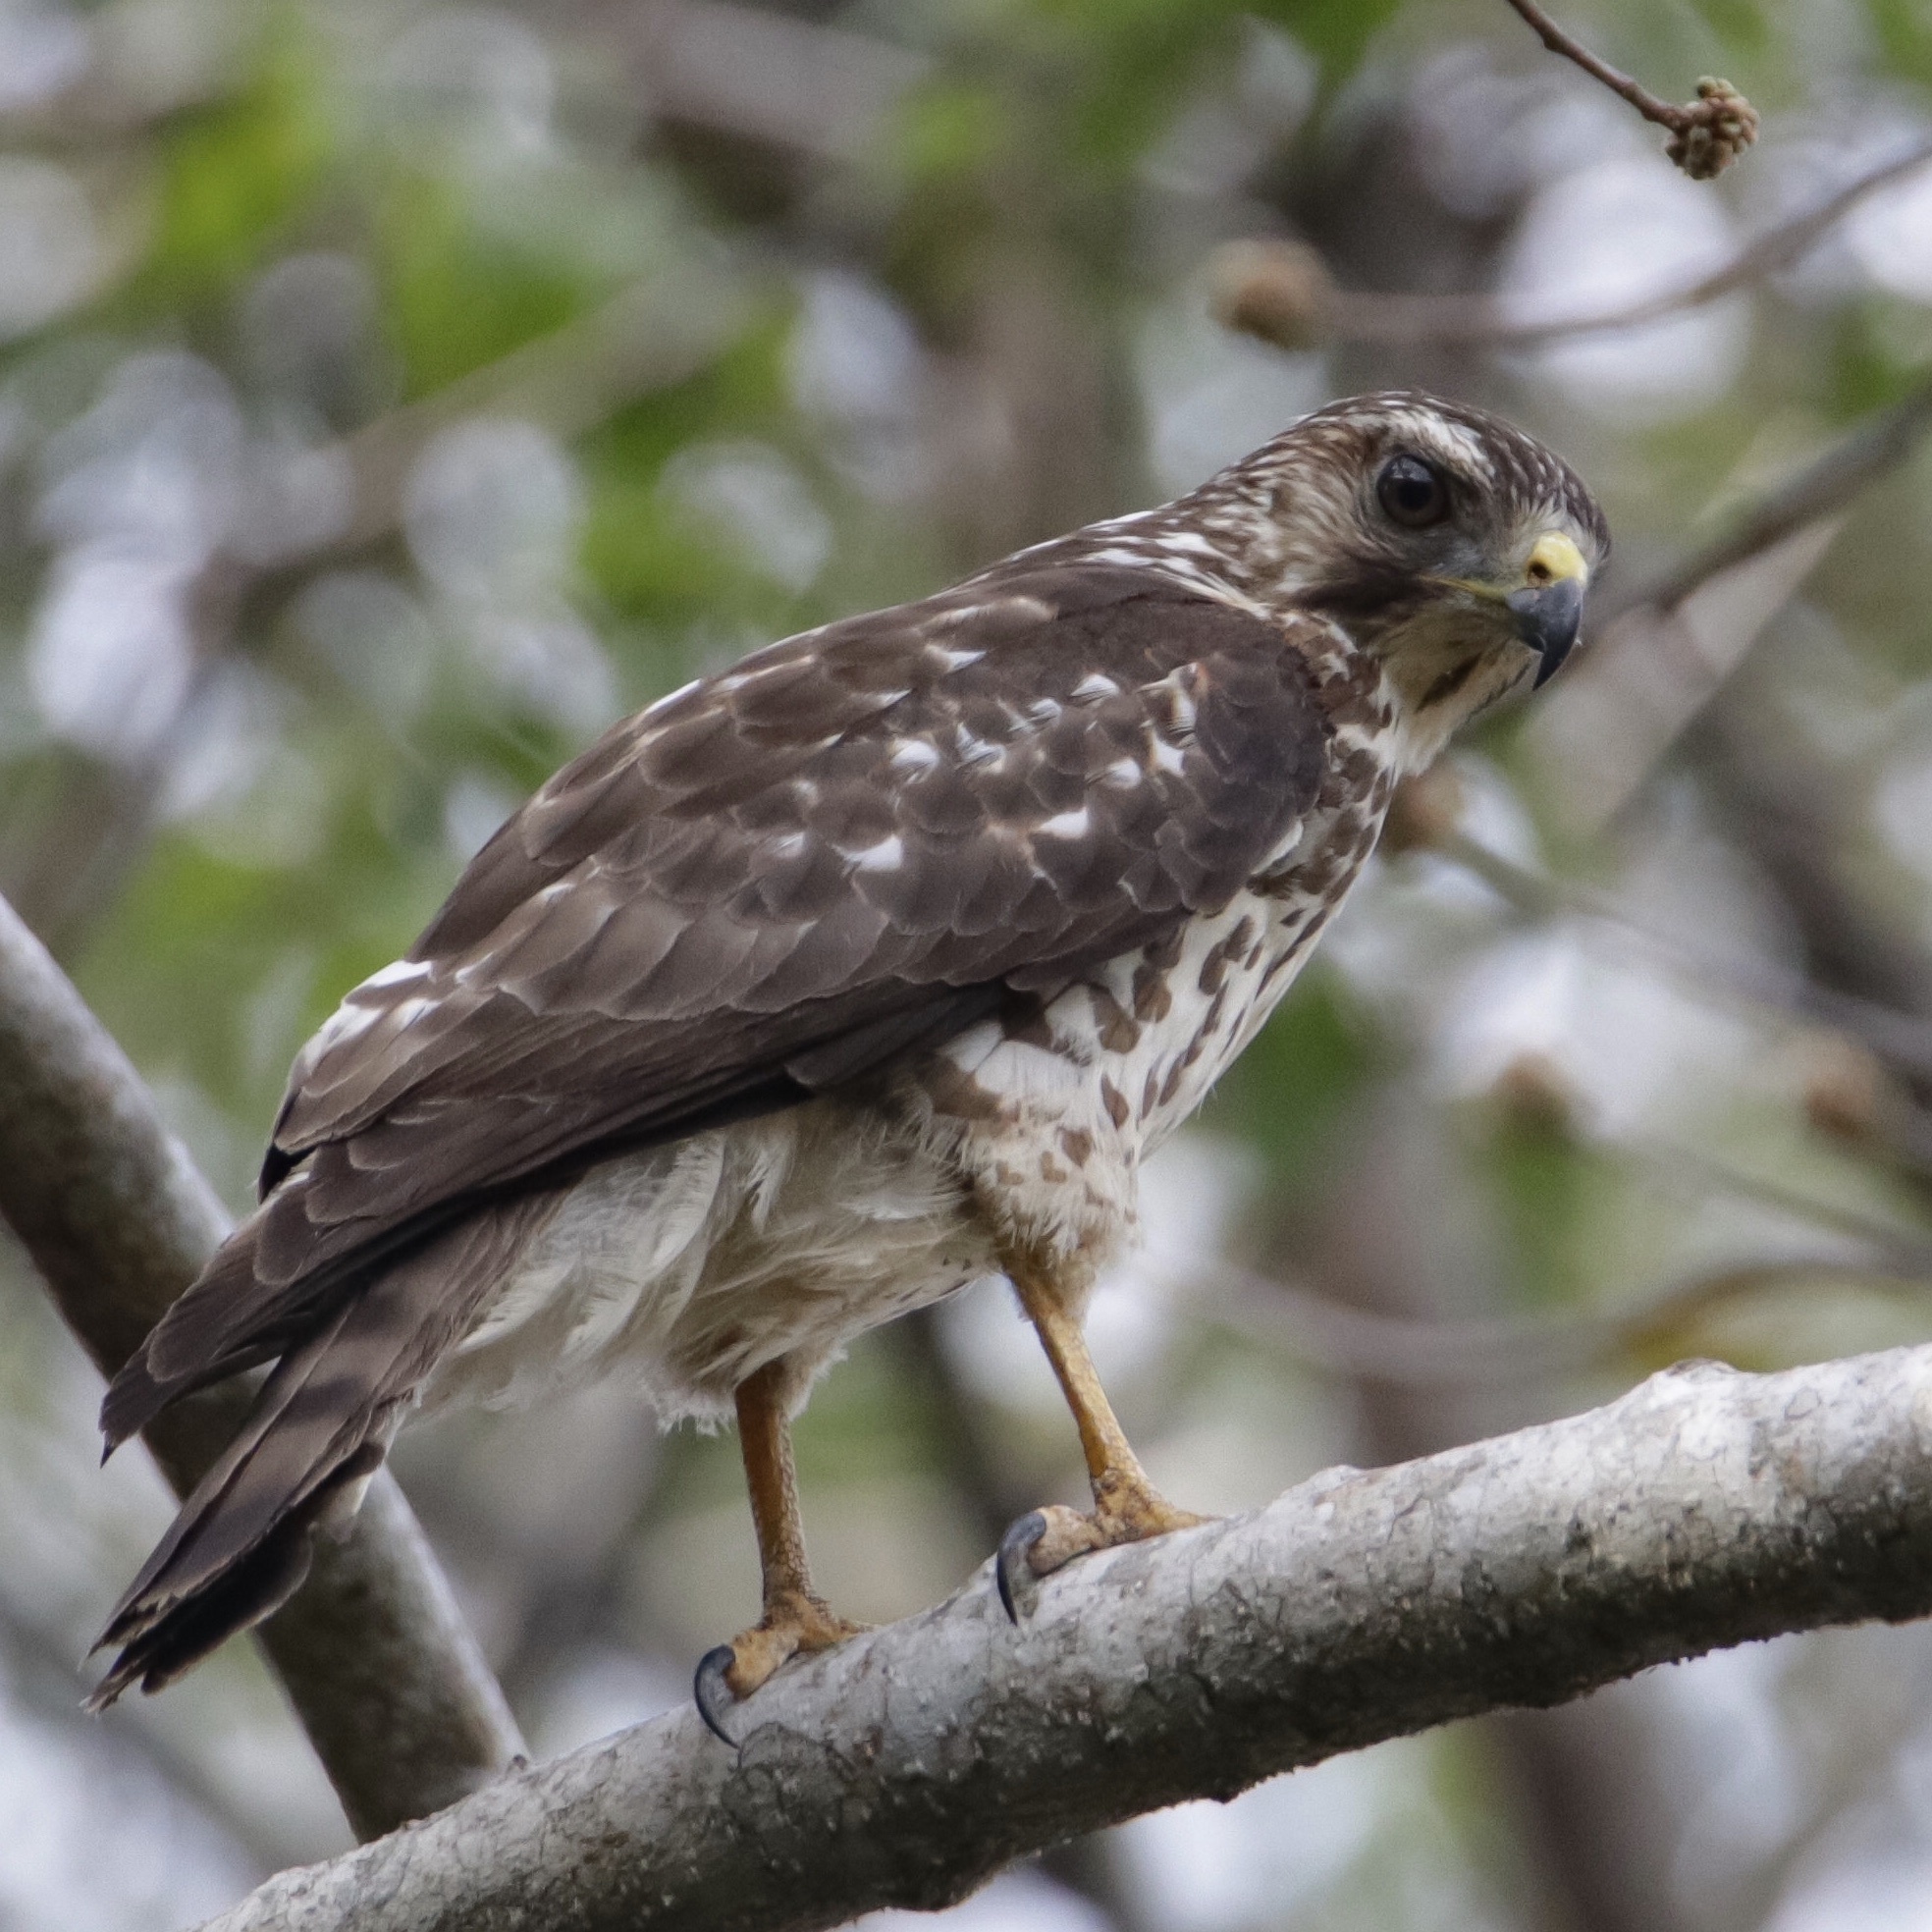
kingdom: Animalia
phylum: Chordata
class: Aves
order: Accipitriformes
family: Accipitridae
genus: Buteo
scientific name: Buteo platypterus
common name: Broad-winged hawk
